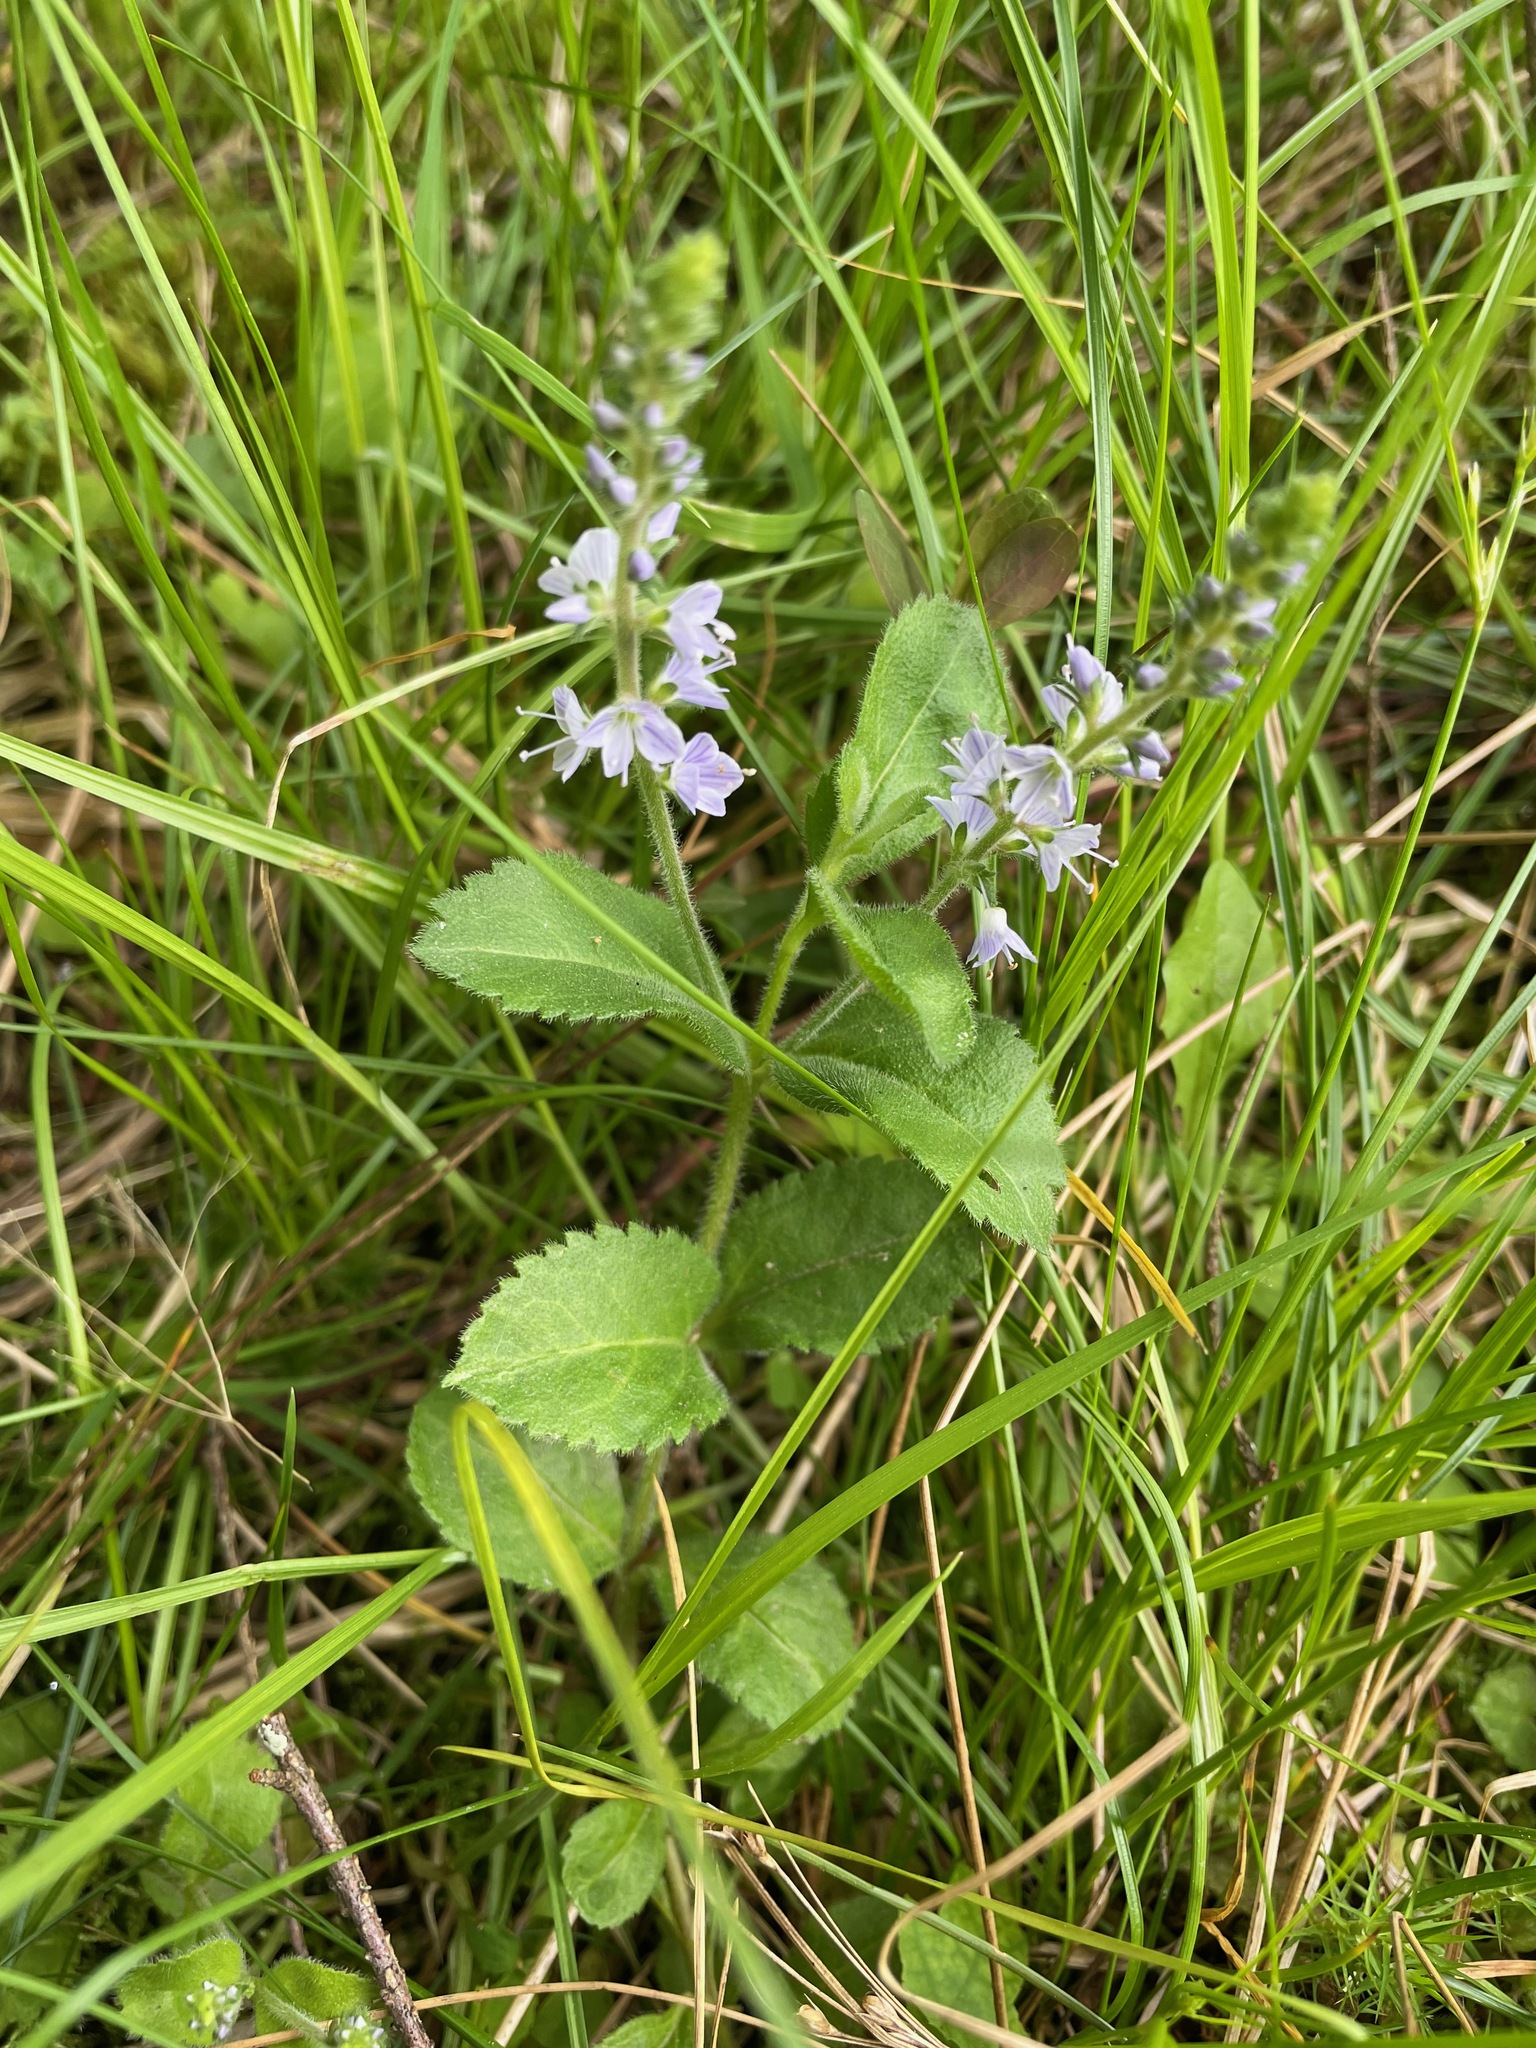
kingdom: Plantae
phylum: Tracheophyta
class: Magnoliopsida
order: Lamiales
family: Plantaginaceae
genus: Veronica
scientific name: Veronica officinalis
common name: Common speedwell
